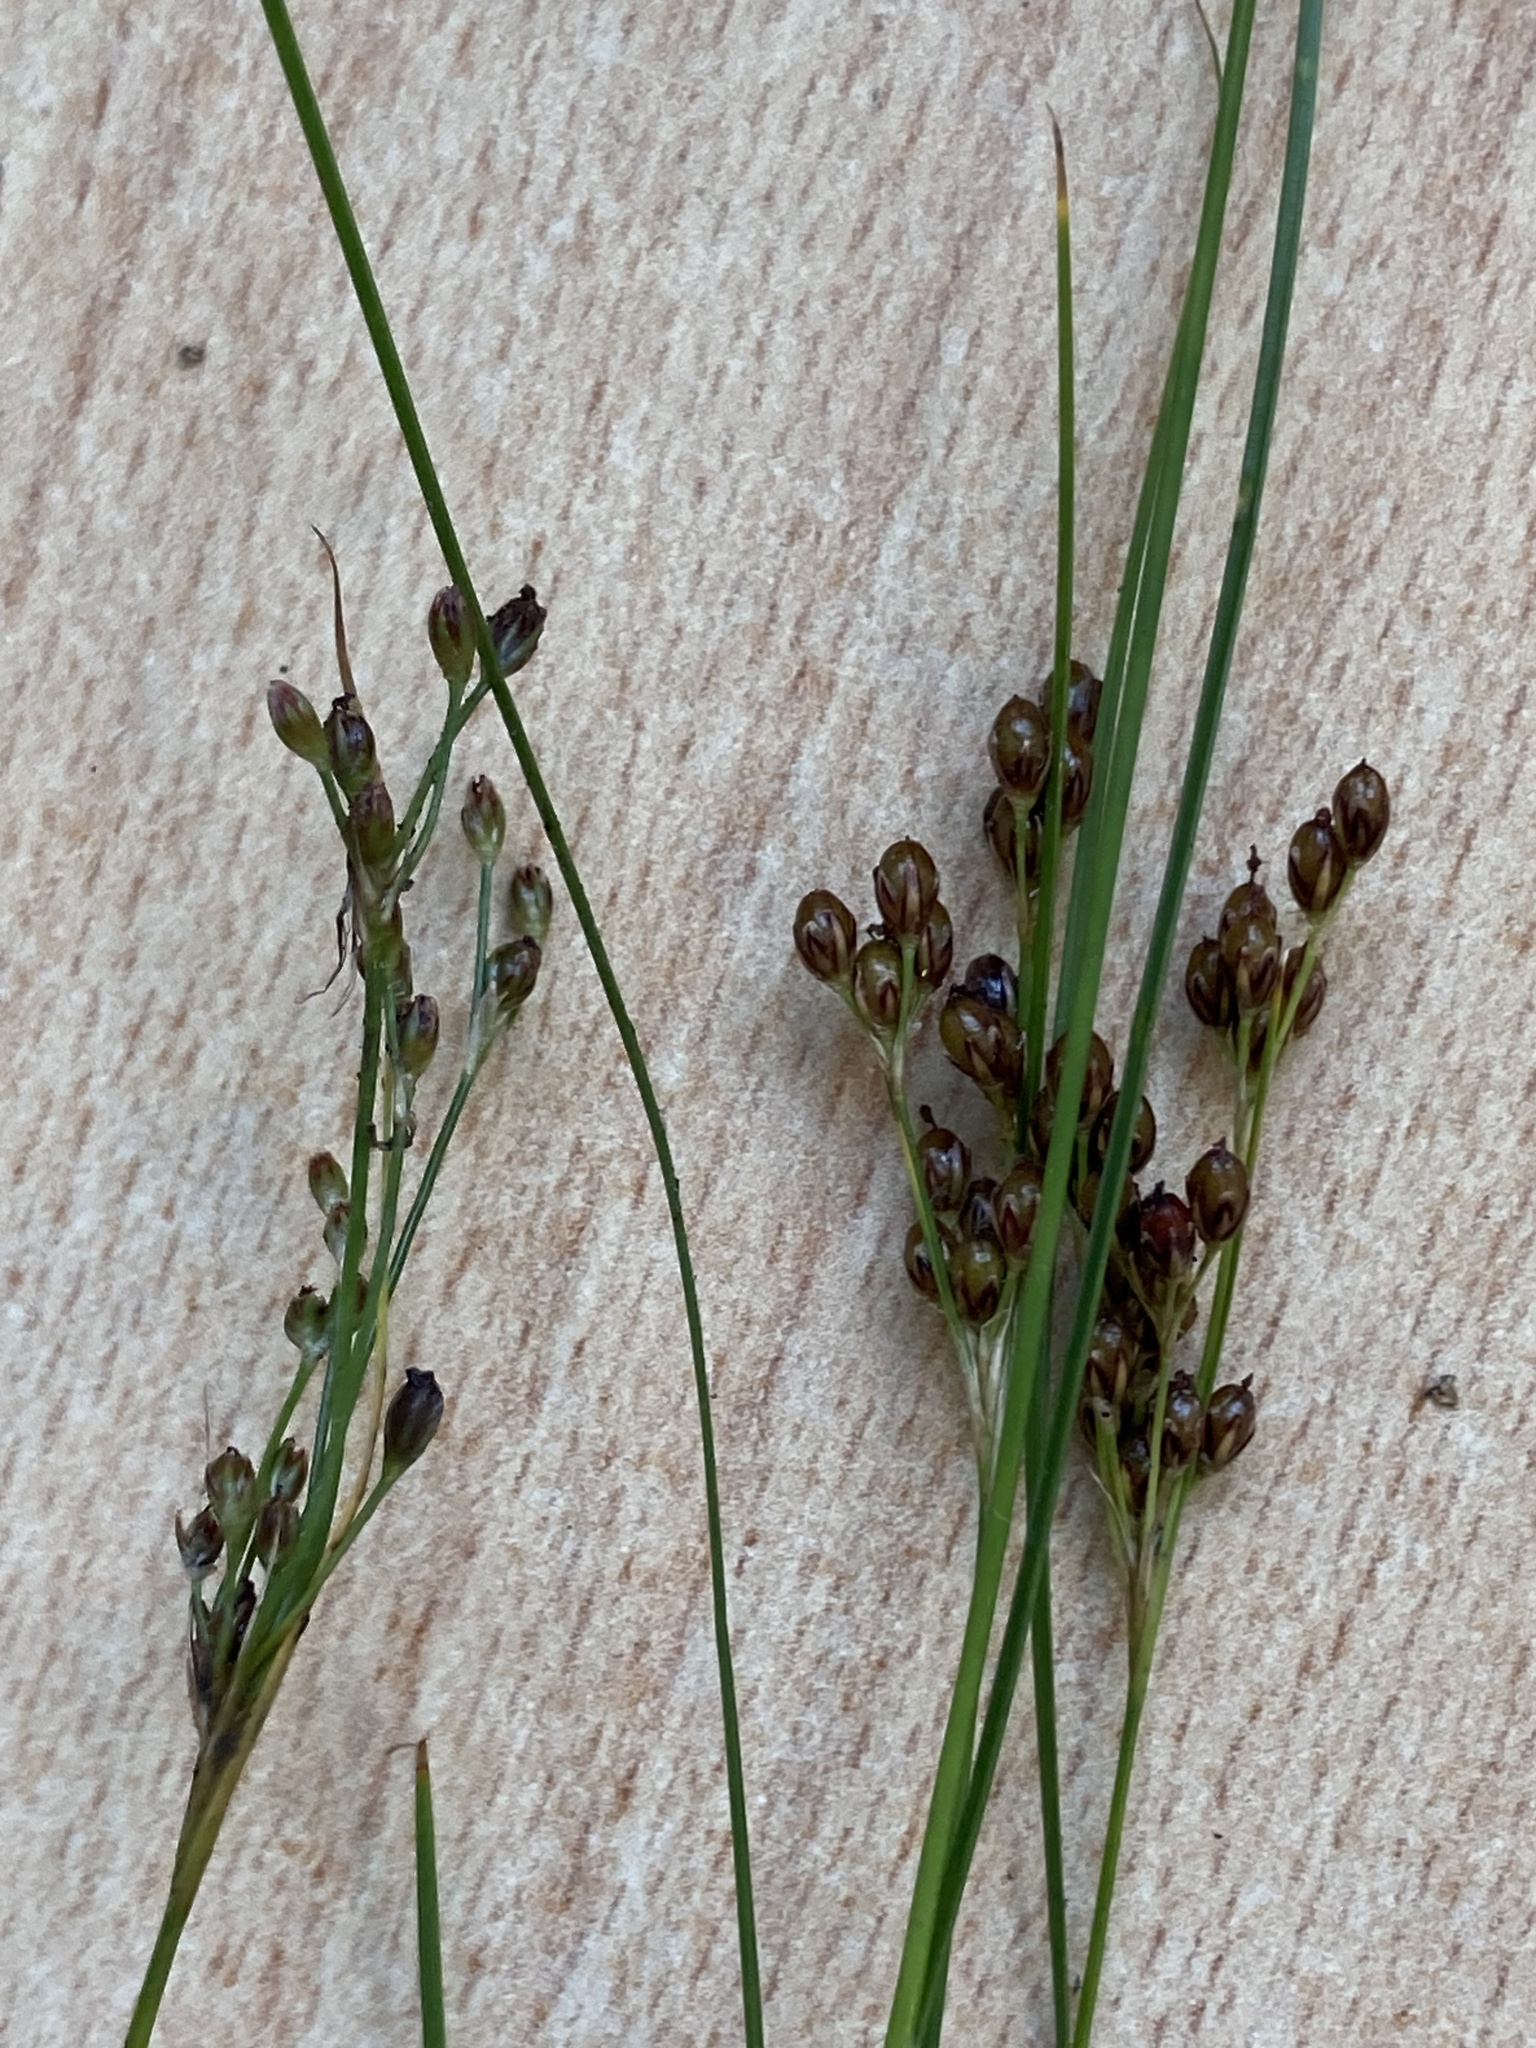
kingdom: Plantae
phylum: Tracheophyta
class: Liliopsida
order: Poales
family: Juncaceae
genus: Juncus
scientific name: Juncus compressus
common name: Round-fruited rush
